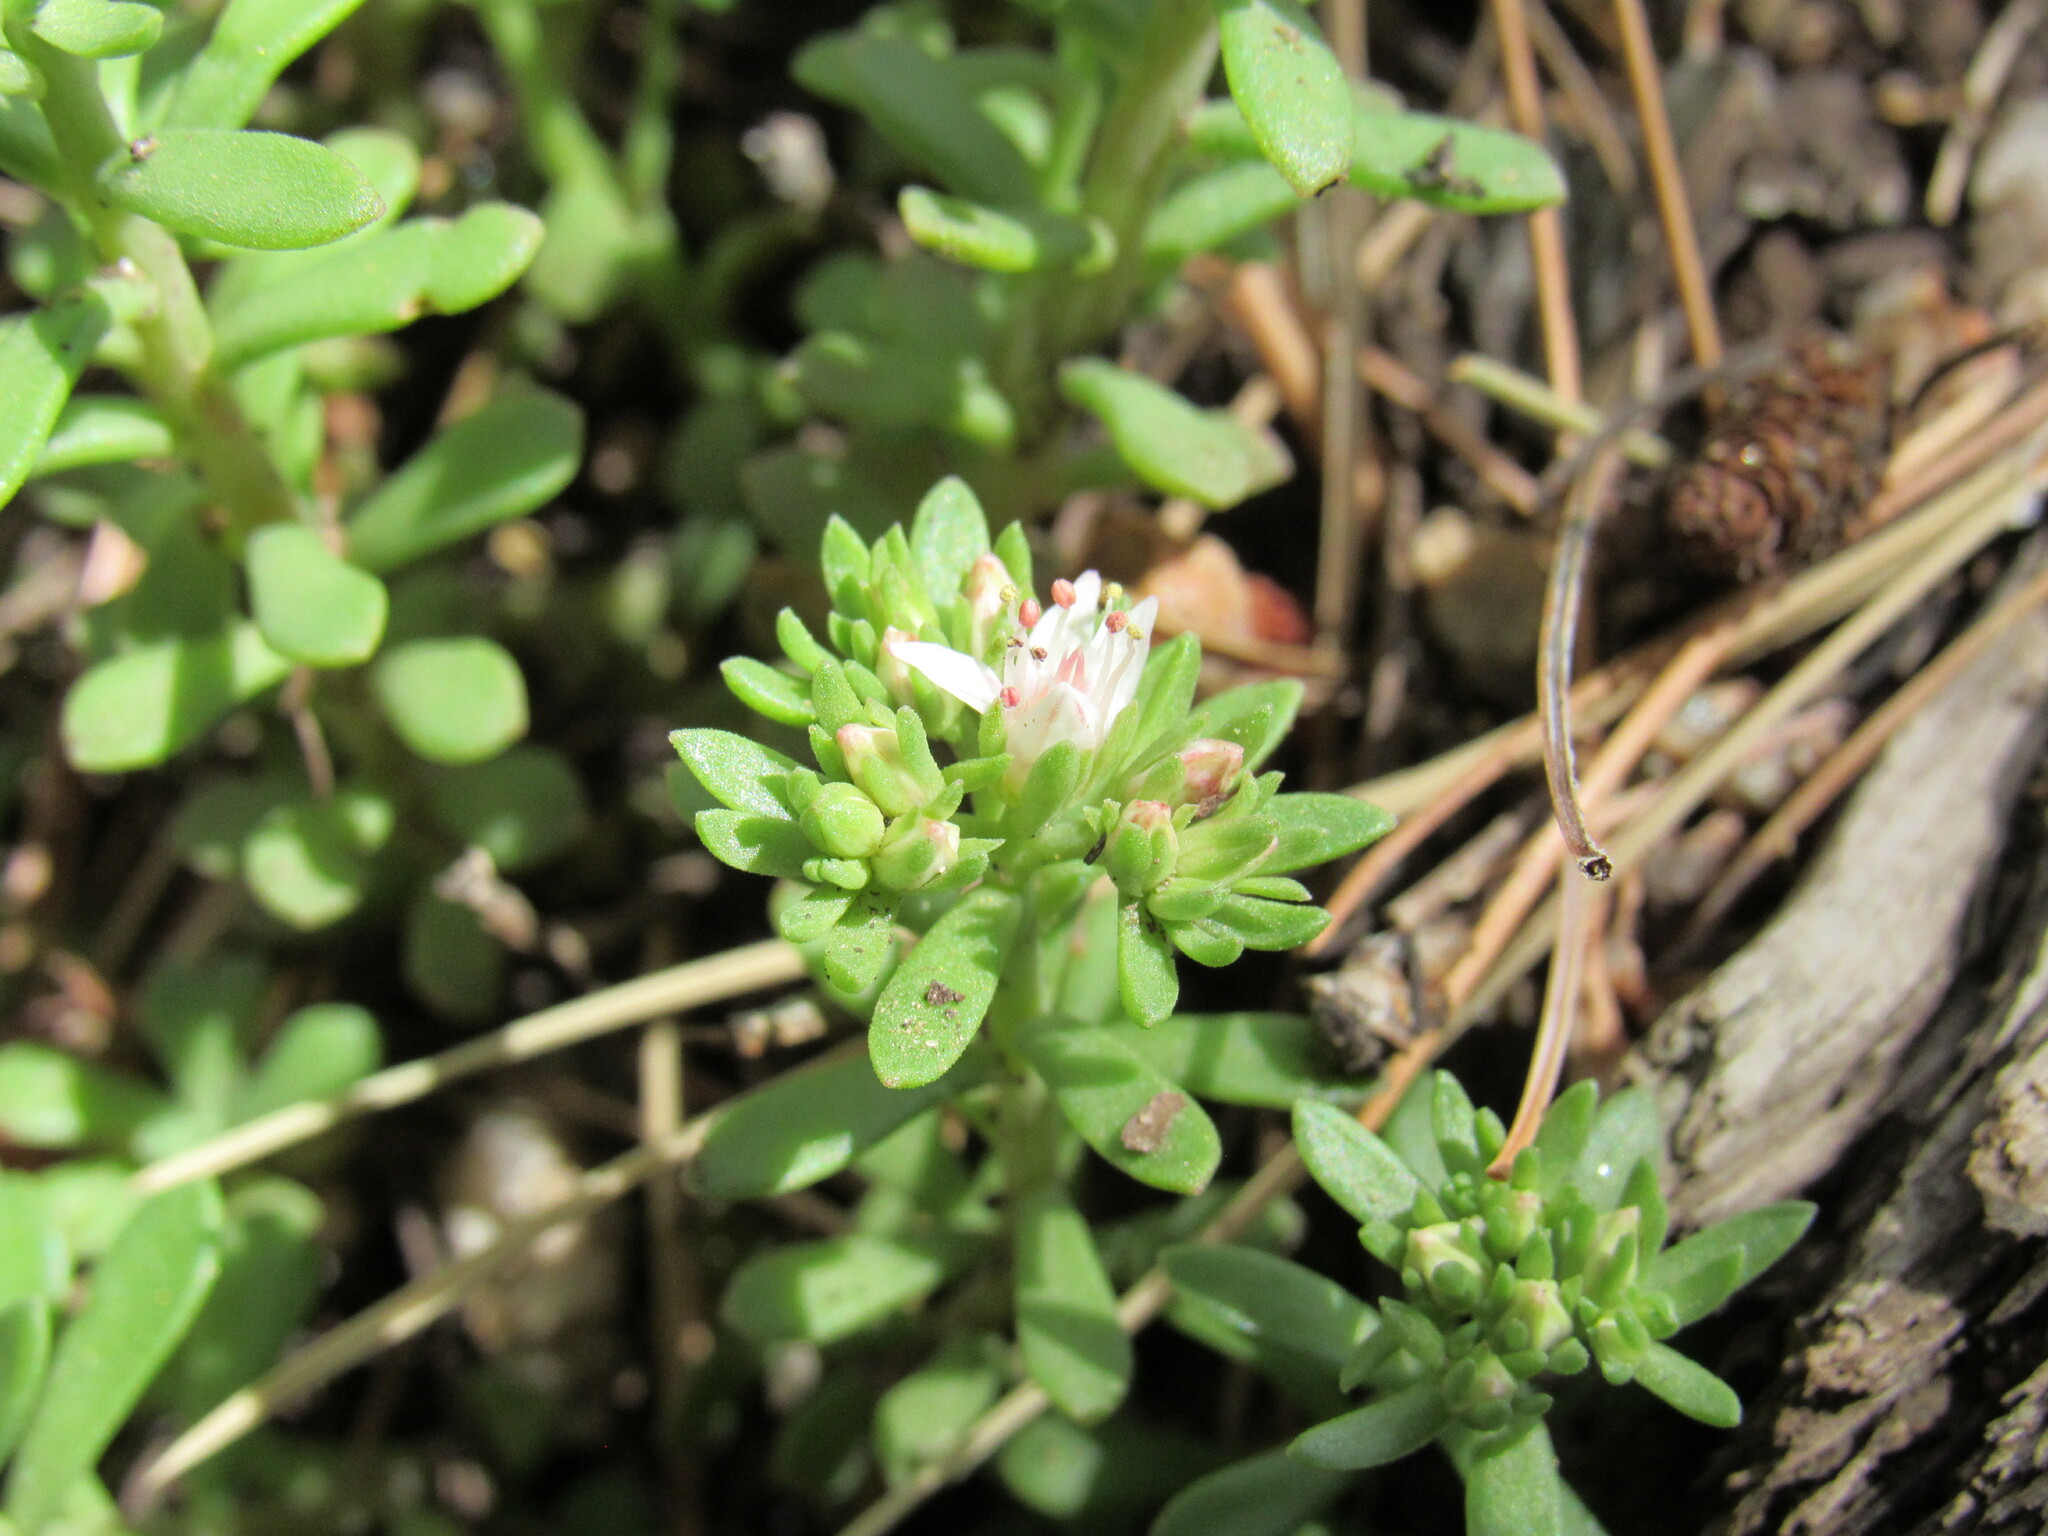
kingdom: Plantae
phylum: Tracheophyta
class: Magnoliopsida
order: Saxifragales
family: Crassulaceae
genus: Sedum
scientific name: Sedum cockerellii
